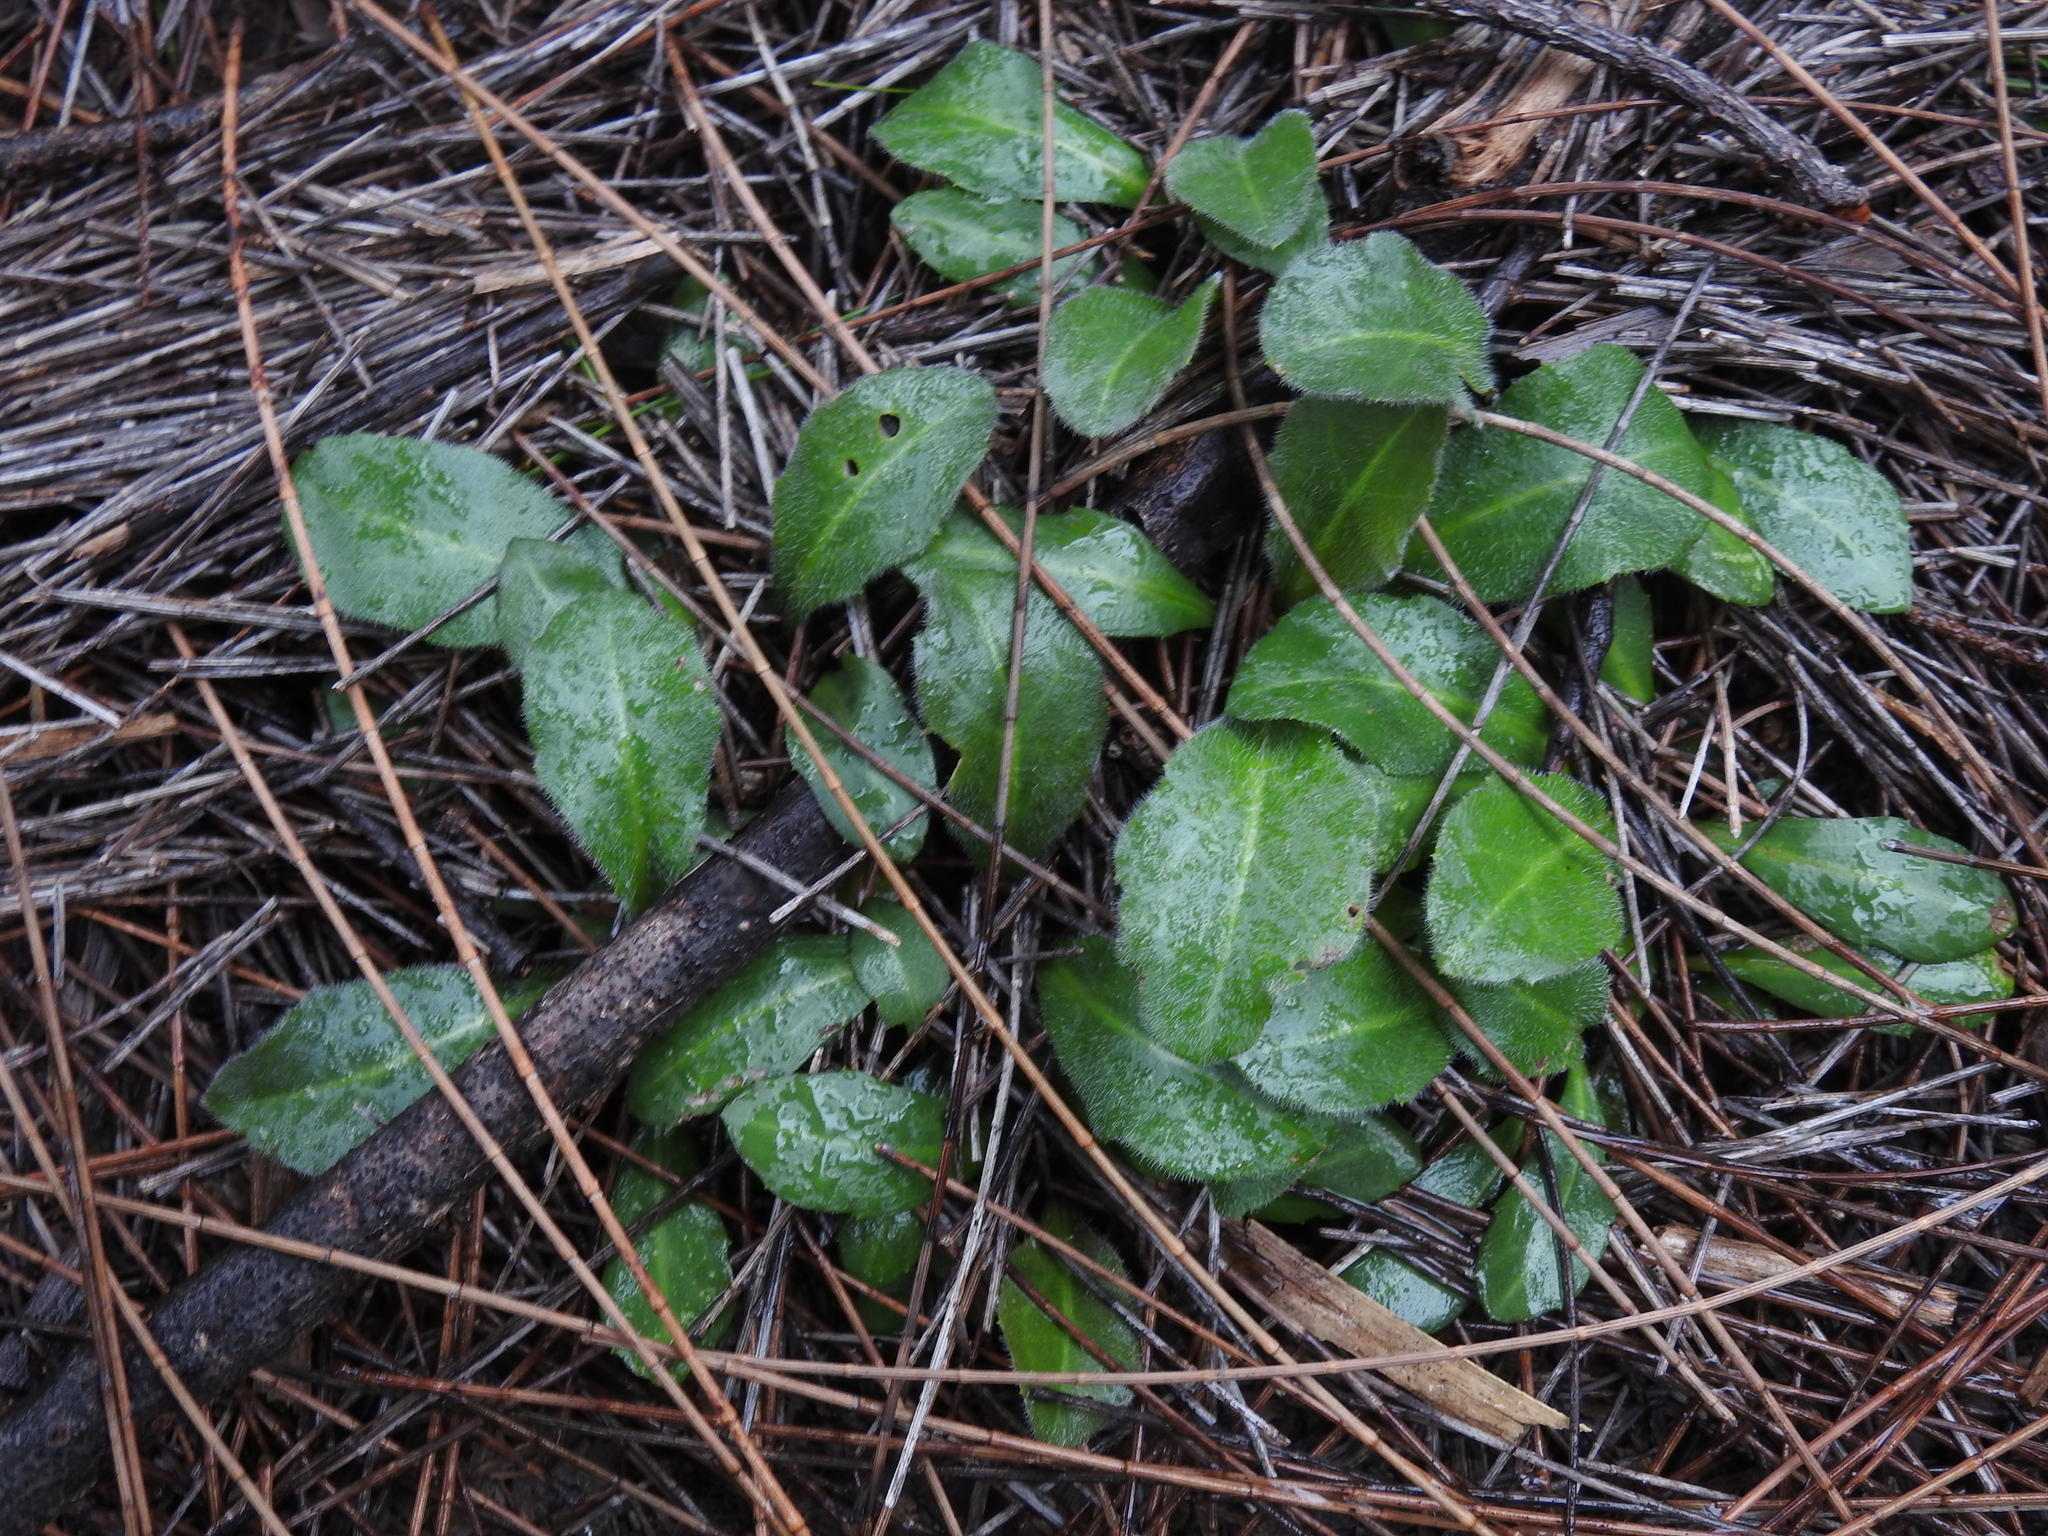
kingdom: Plantae
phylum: Tracheophyta
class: Magnoliopsida
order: Asterales
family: Asteraceae
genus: Erigeron
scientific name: Erigeron quercifolius
